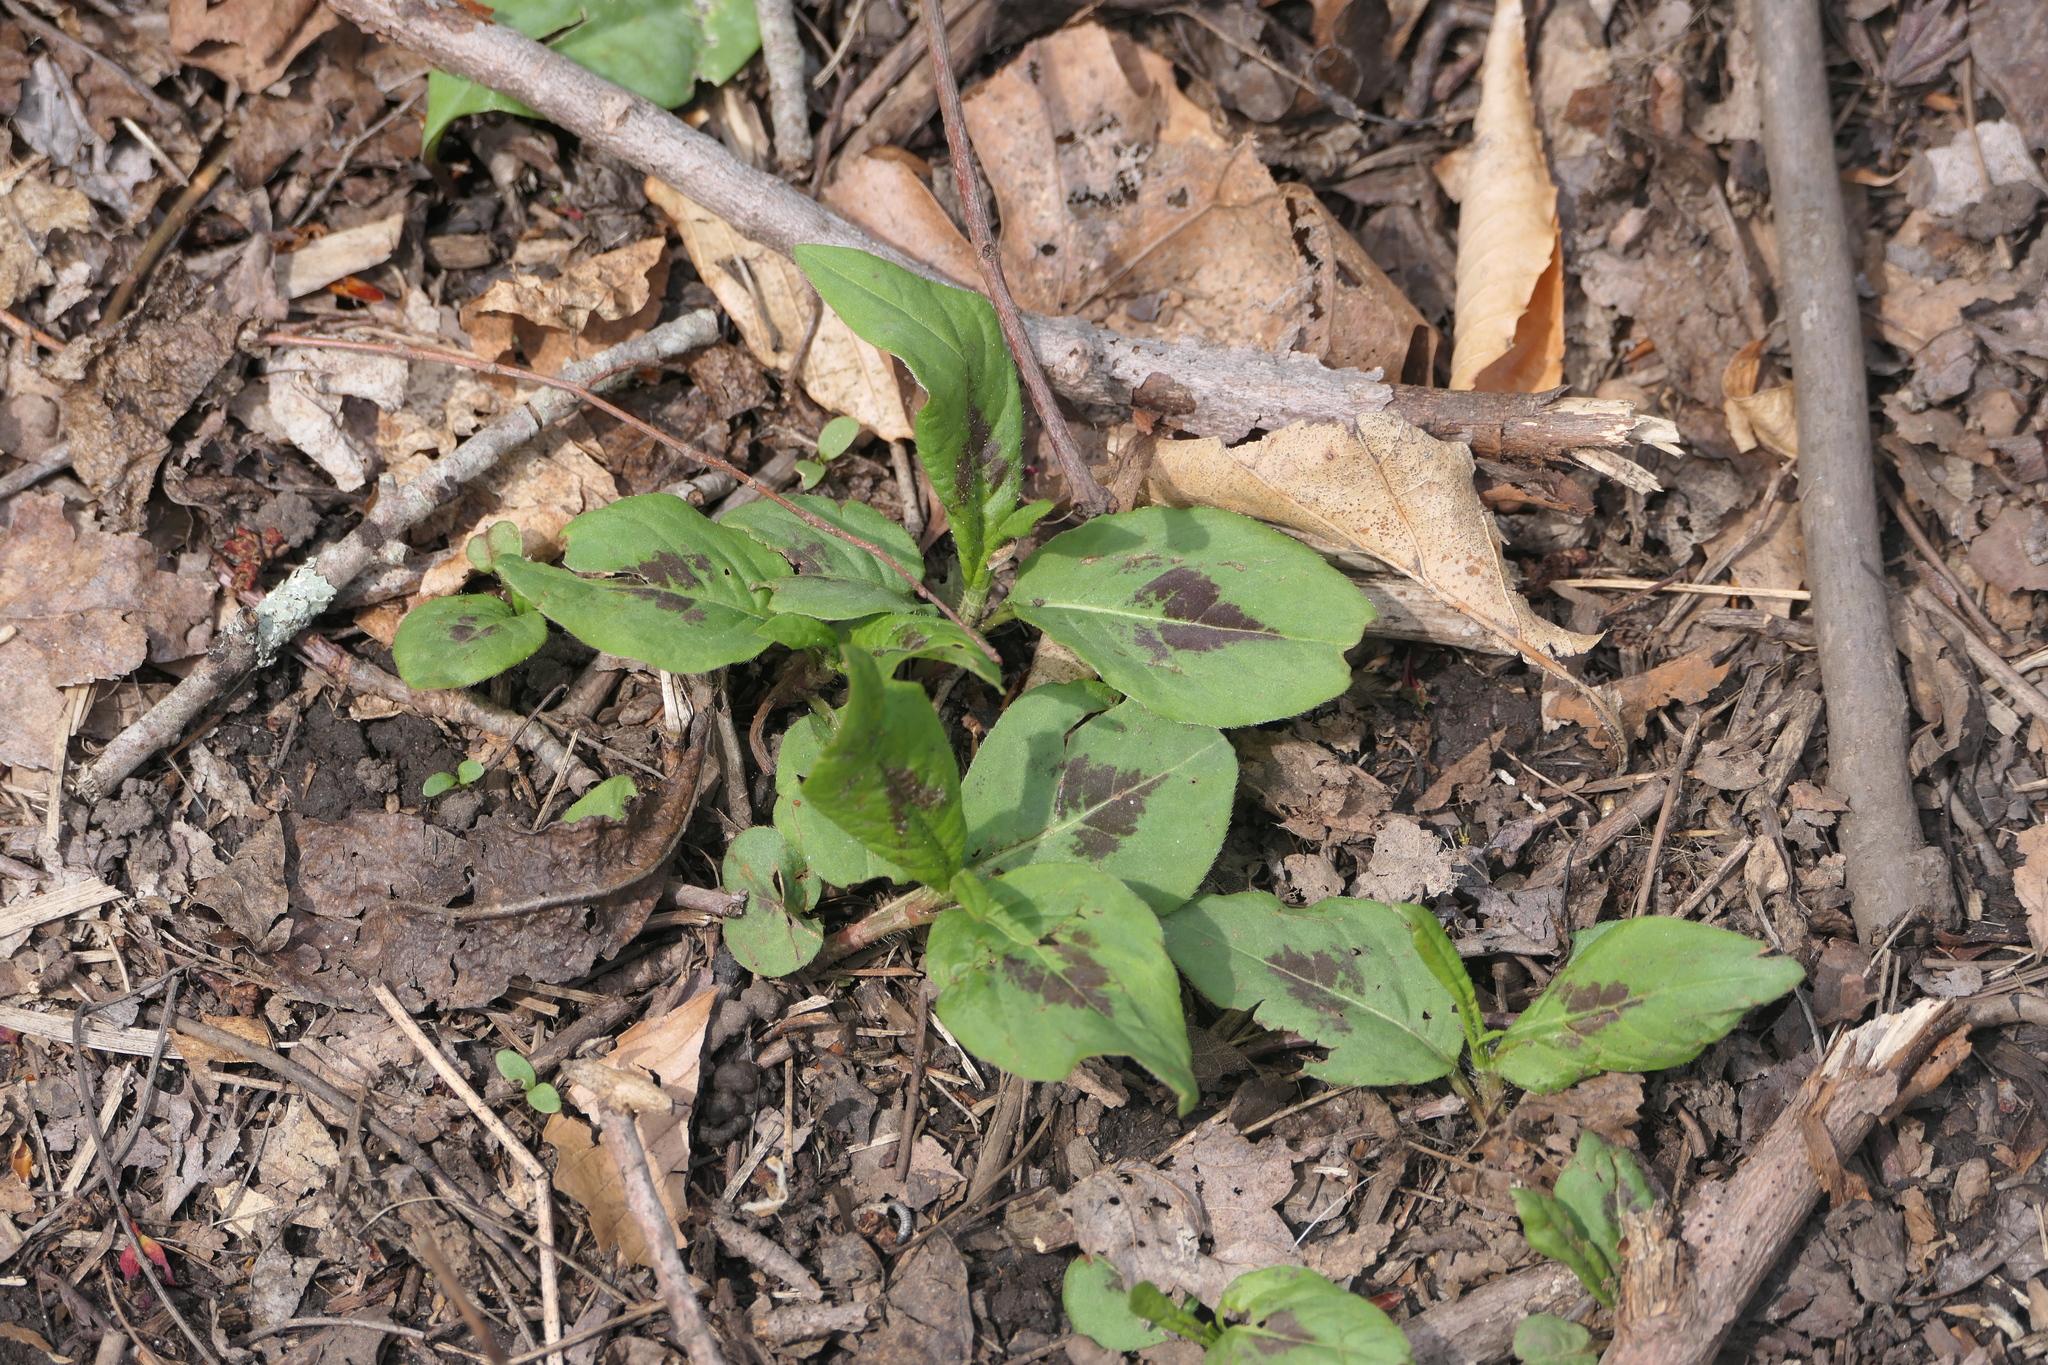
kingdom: Plantae
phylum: Tracheophyta
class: Magnoliopsida
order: Caryophyllales
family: Polygonaceae
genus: Persicaria
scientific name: Persicaria virginiana
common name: Jumpseed
